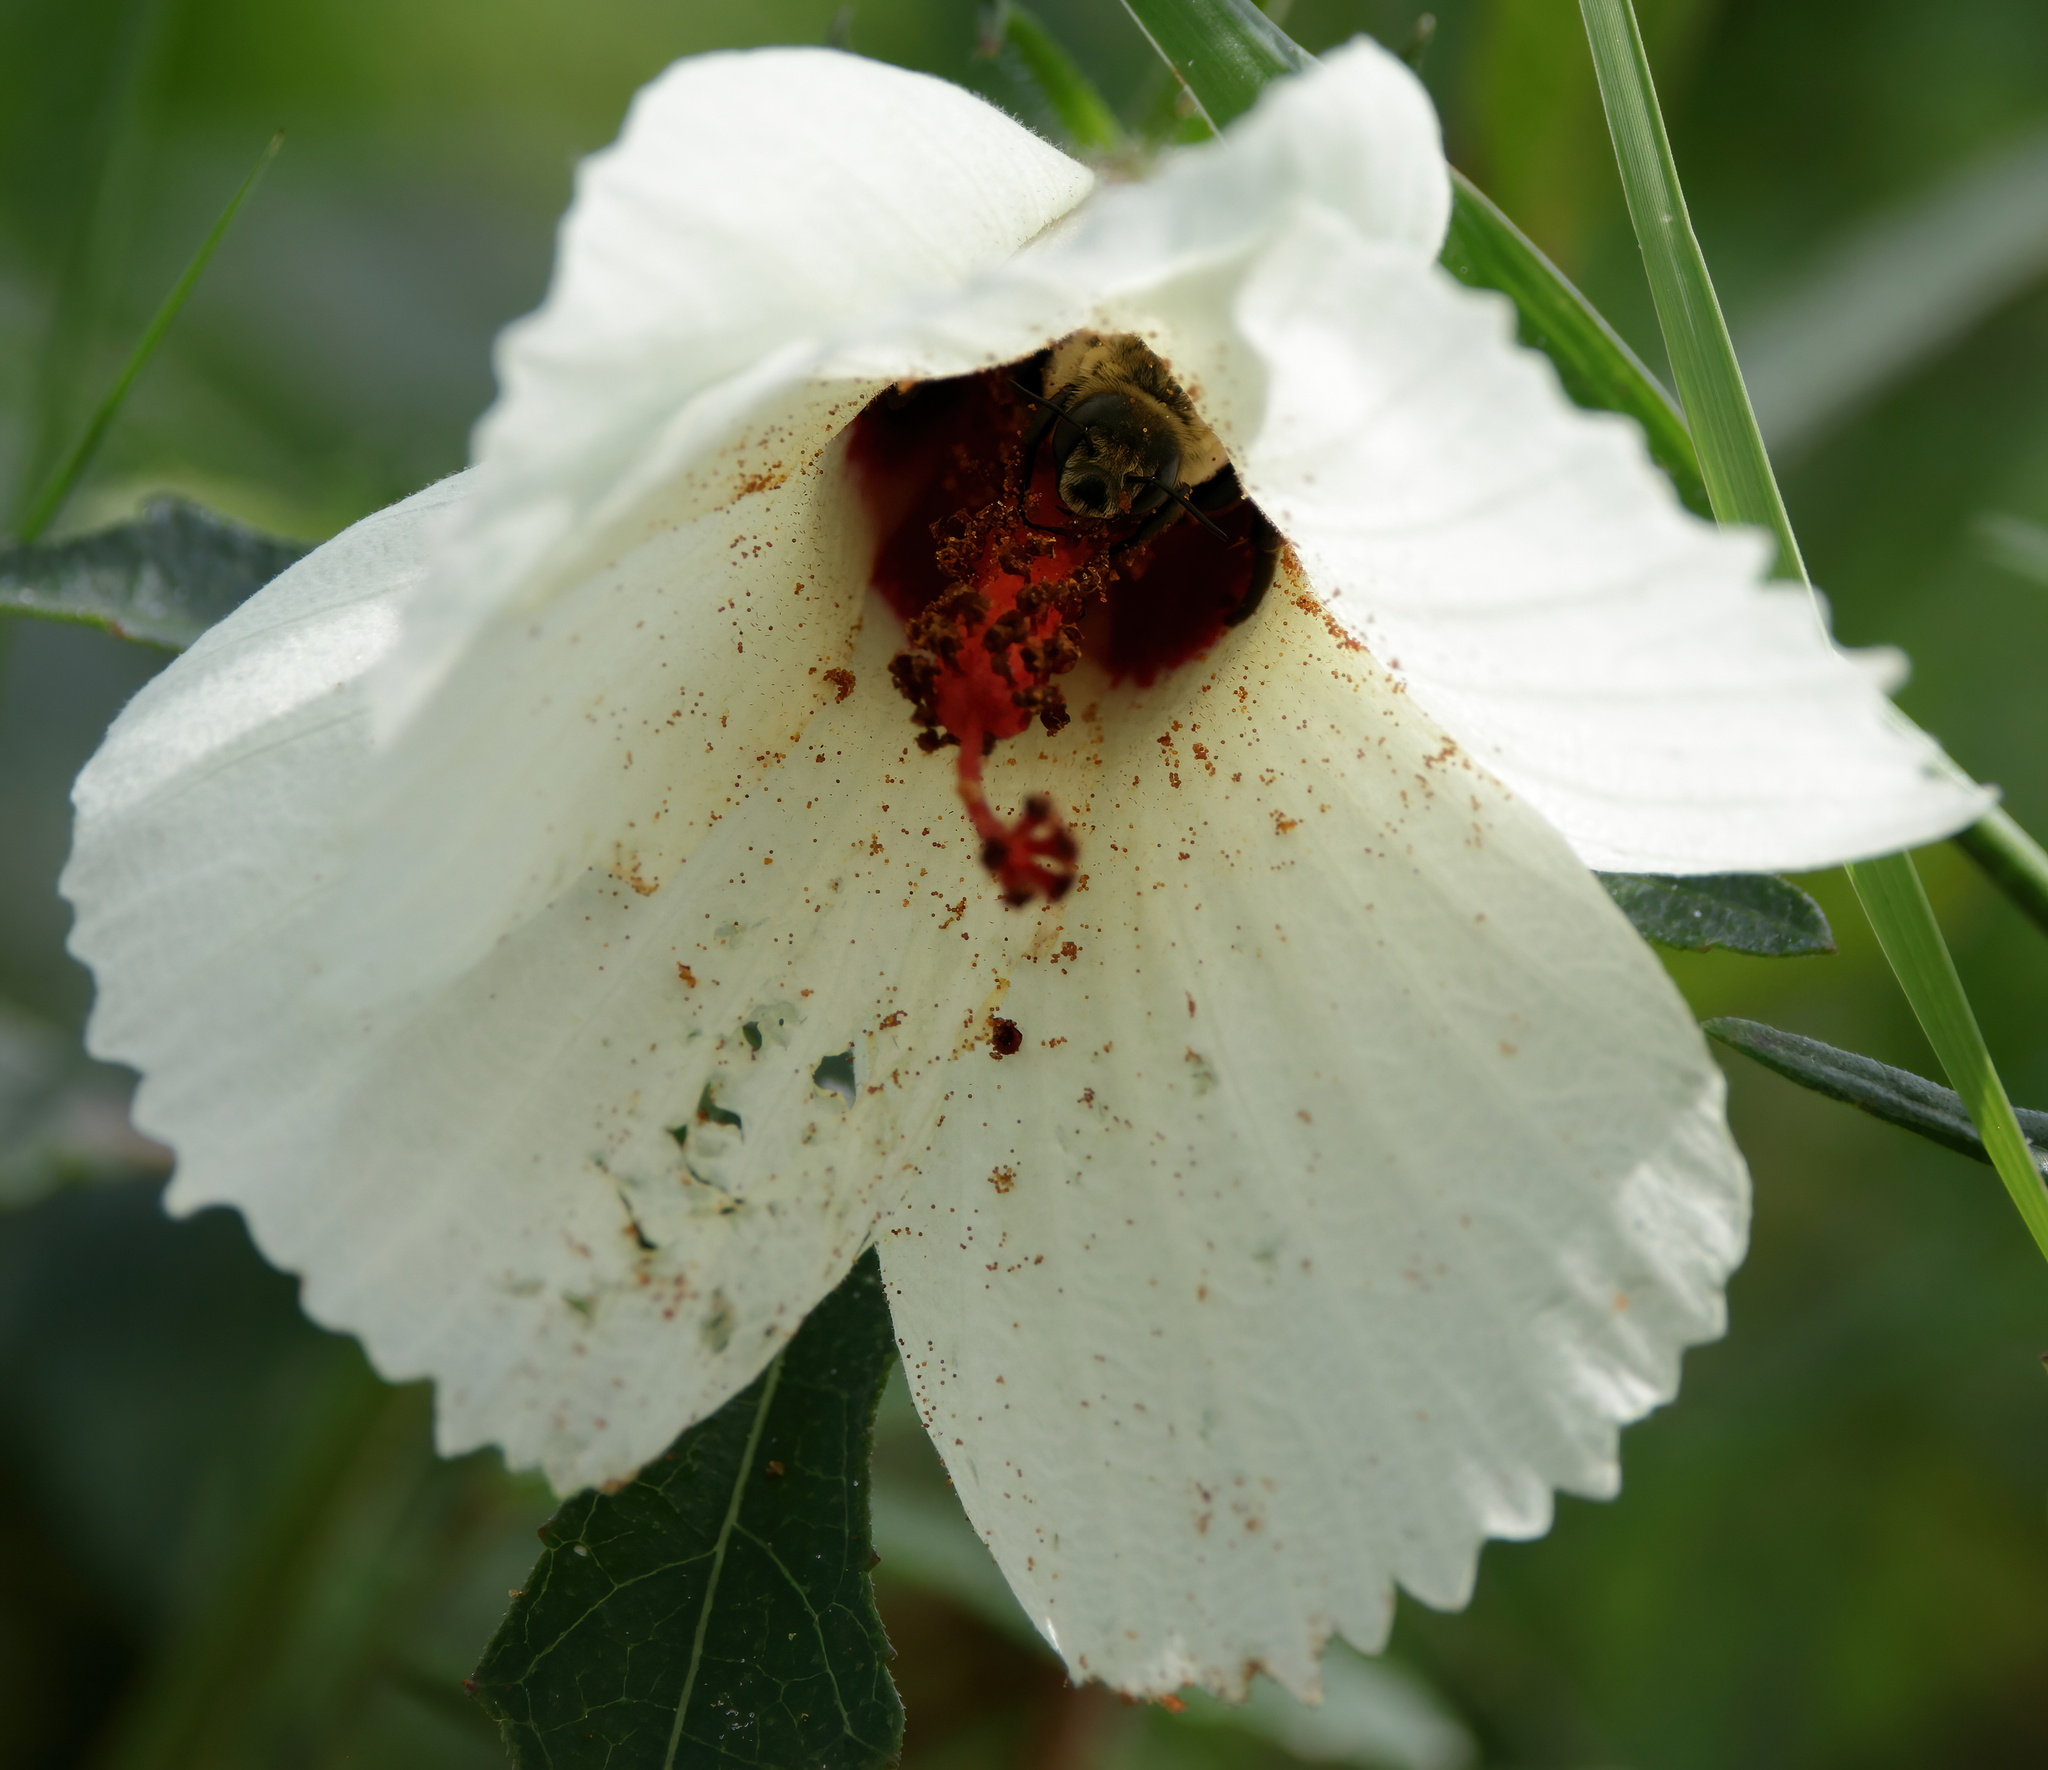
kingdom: Animalia
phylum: Arthropoda
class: Insecta
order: Hymenoptera
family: Apidae
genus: Ptilothrix
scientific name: Ptilothrix bombiformis
